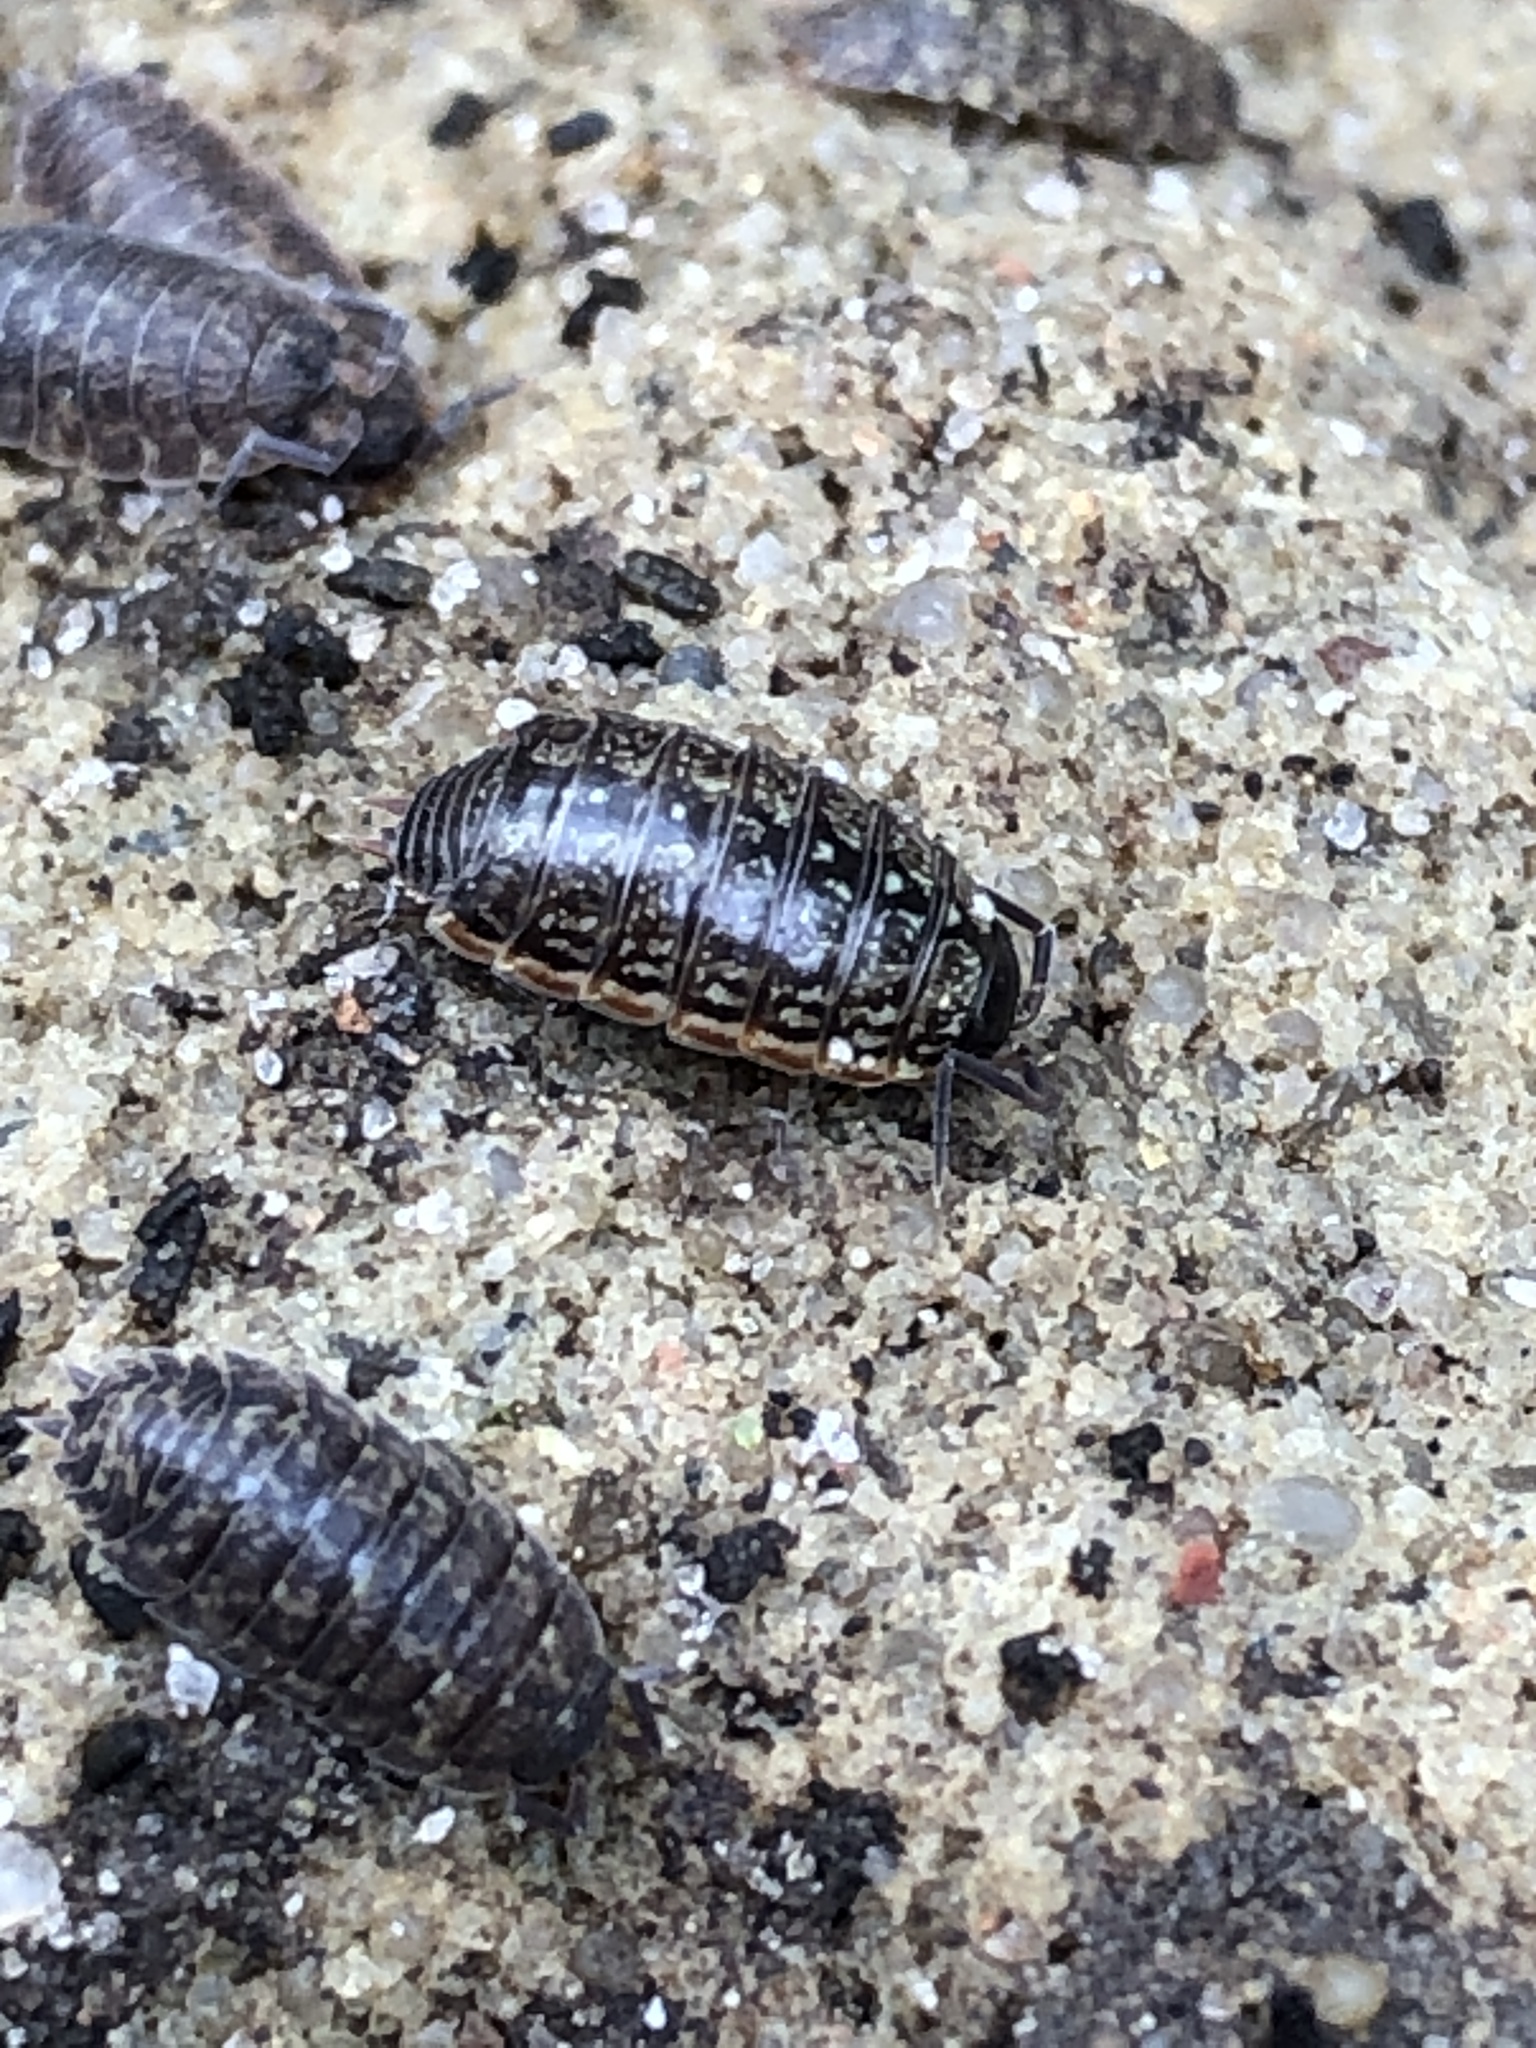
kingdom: Animalia
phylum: Arthropoda
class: Malacostraca
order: Isopoda
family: Philosciidae
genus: Philoscia
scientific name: Philoscia muscorum
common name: Common striped woodlouse
